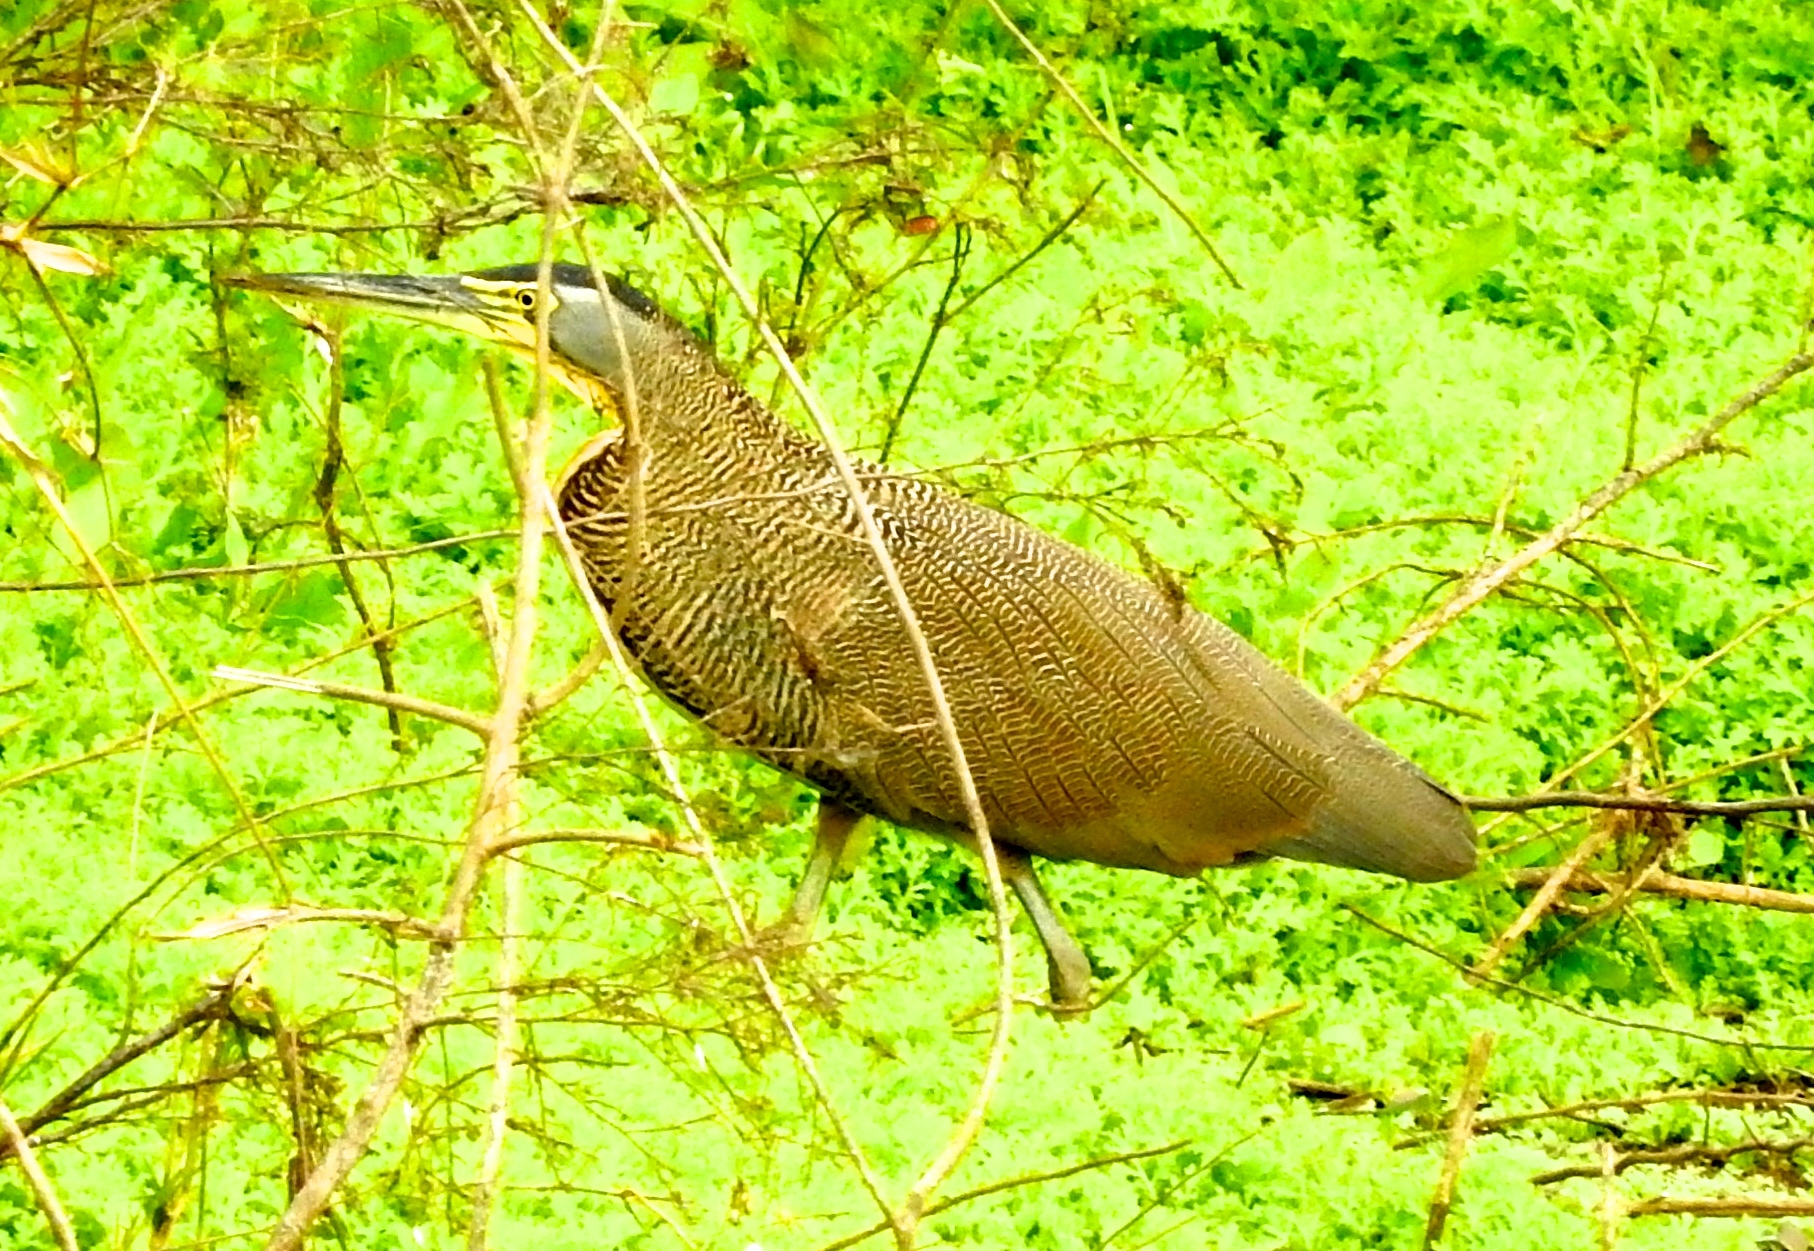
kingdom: Animalia
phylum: Chordata
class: Aves
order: Pelecaniformes
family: Ardeidae
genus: Tigrisoma
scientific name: Tigrisoma mexicanum
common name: Bare-throated tiger-heron
